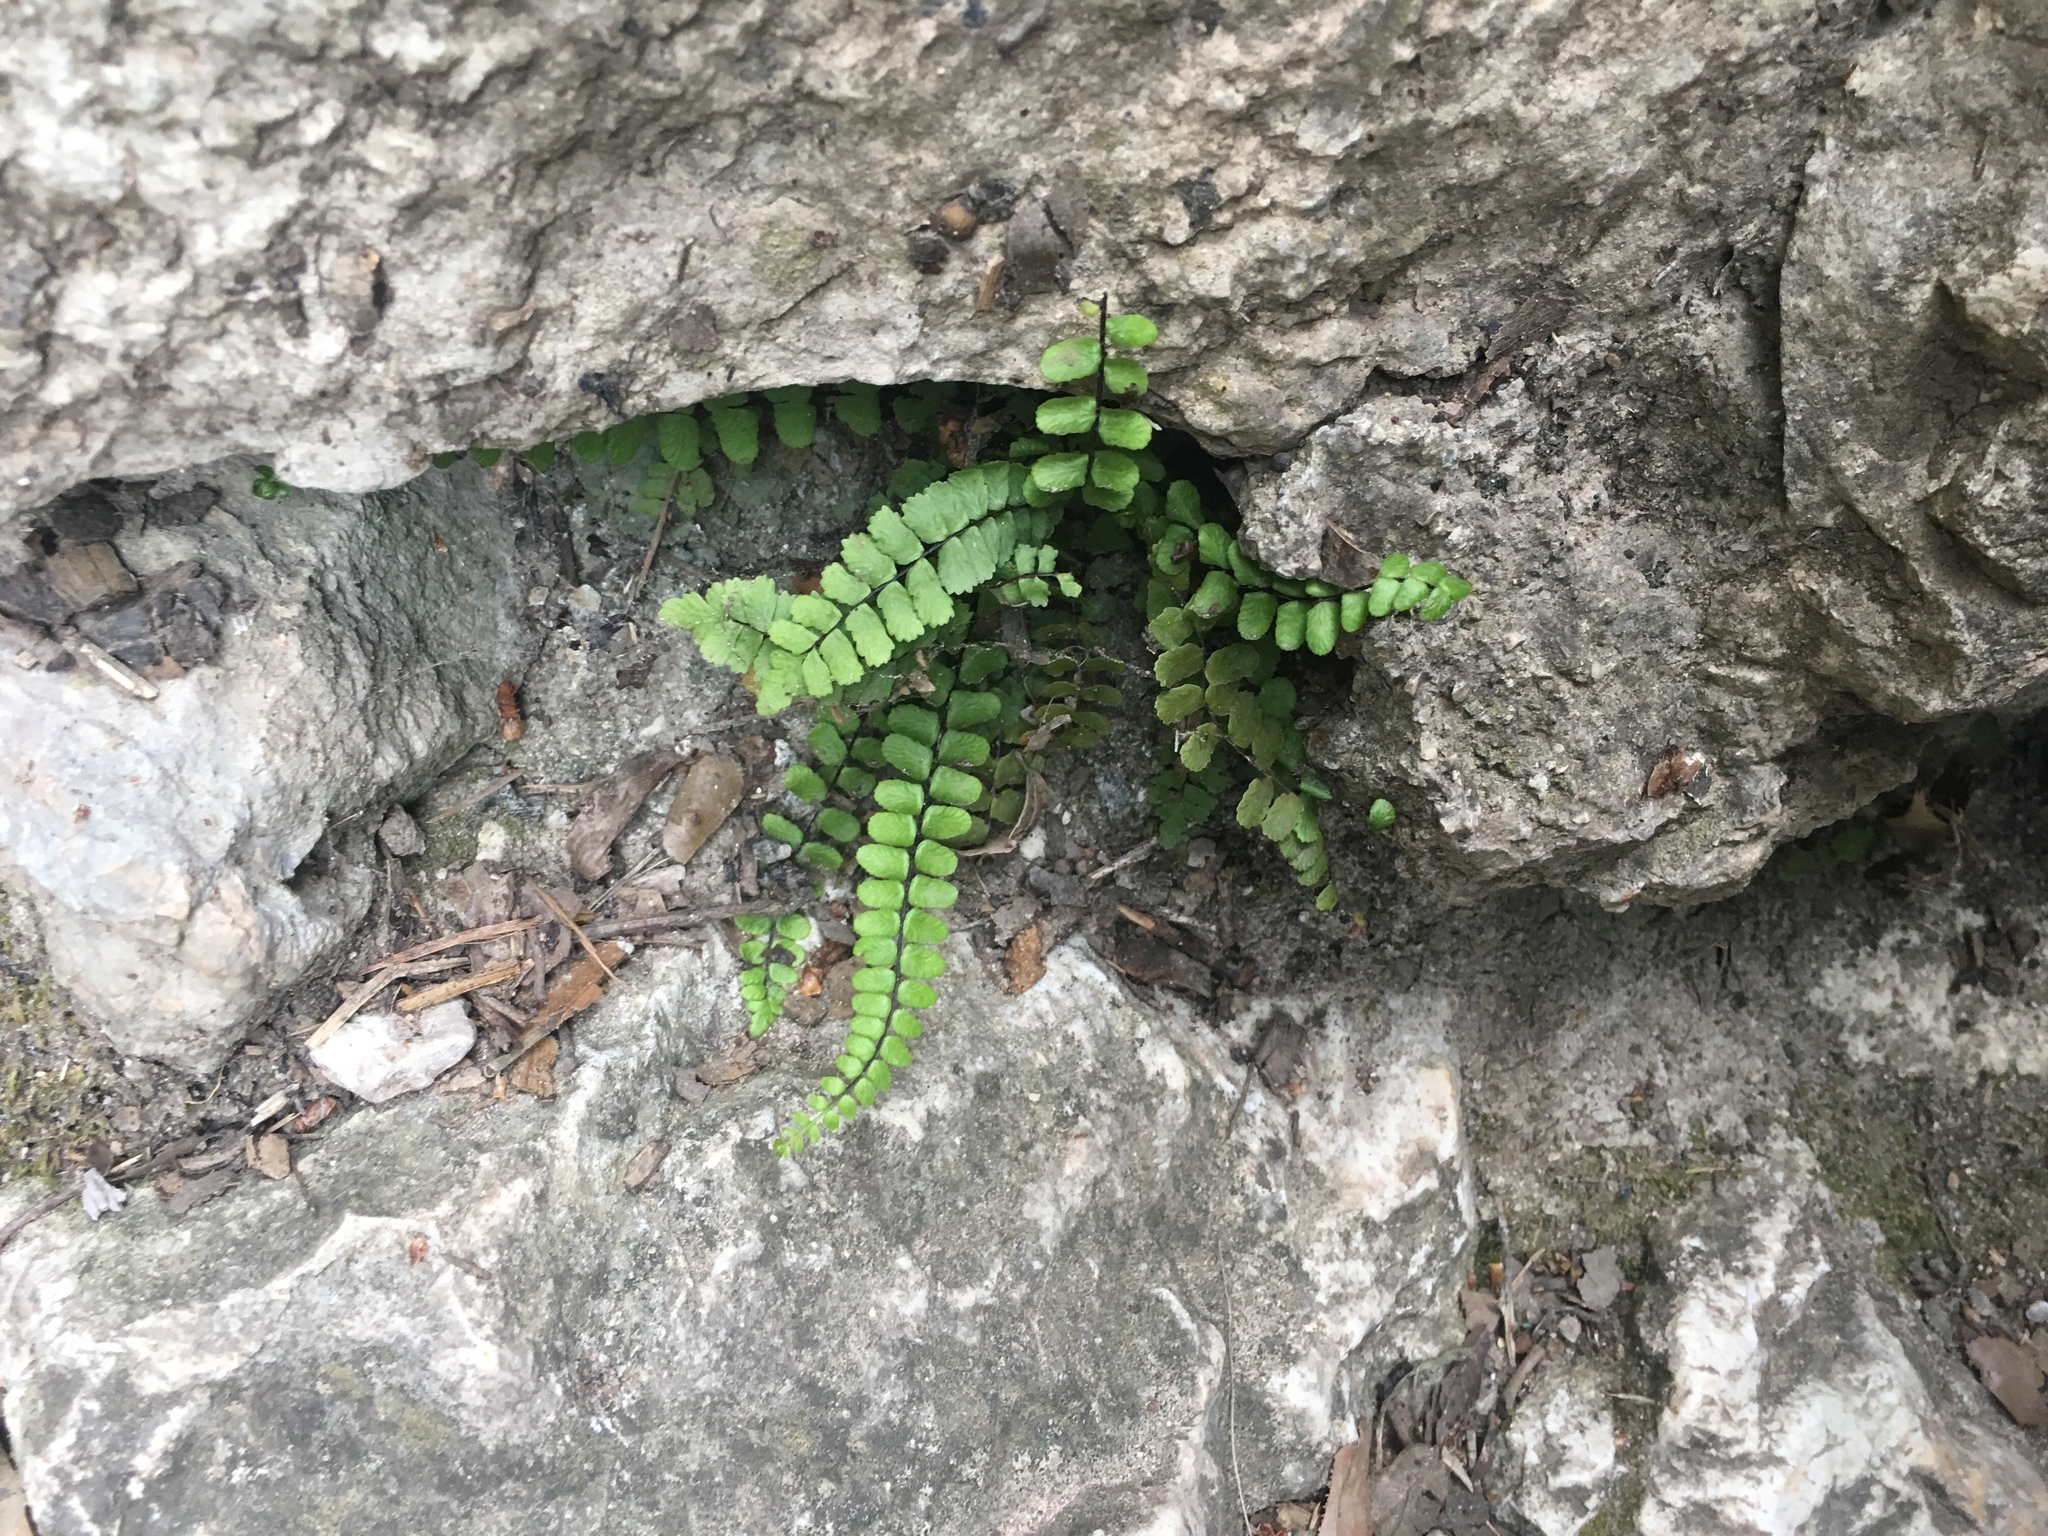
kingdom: Plantae
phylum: Tracheophyta
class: Polypodiopsida
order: Polypodiales
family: Aspleniaceae
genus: Asplenium
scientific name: Asplenium trichomanes
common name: Maidenhair spleenwort
